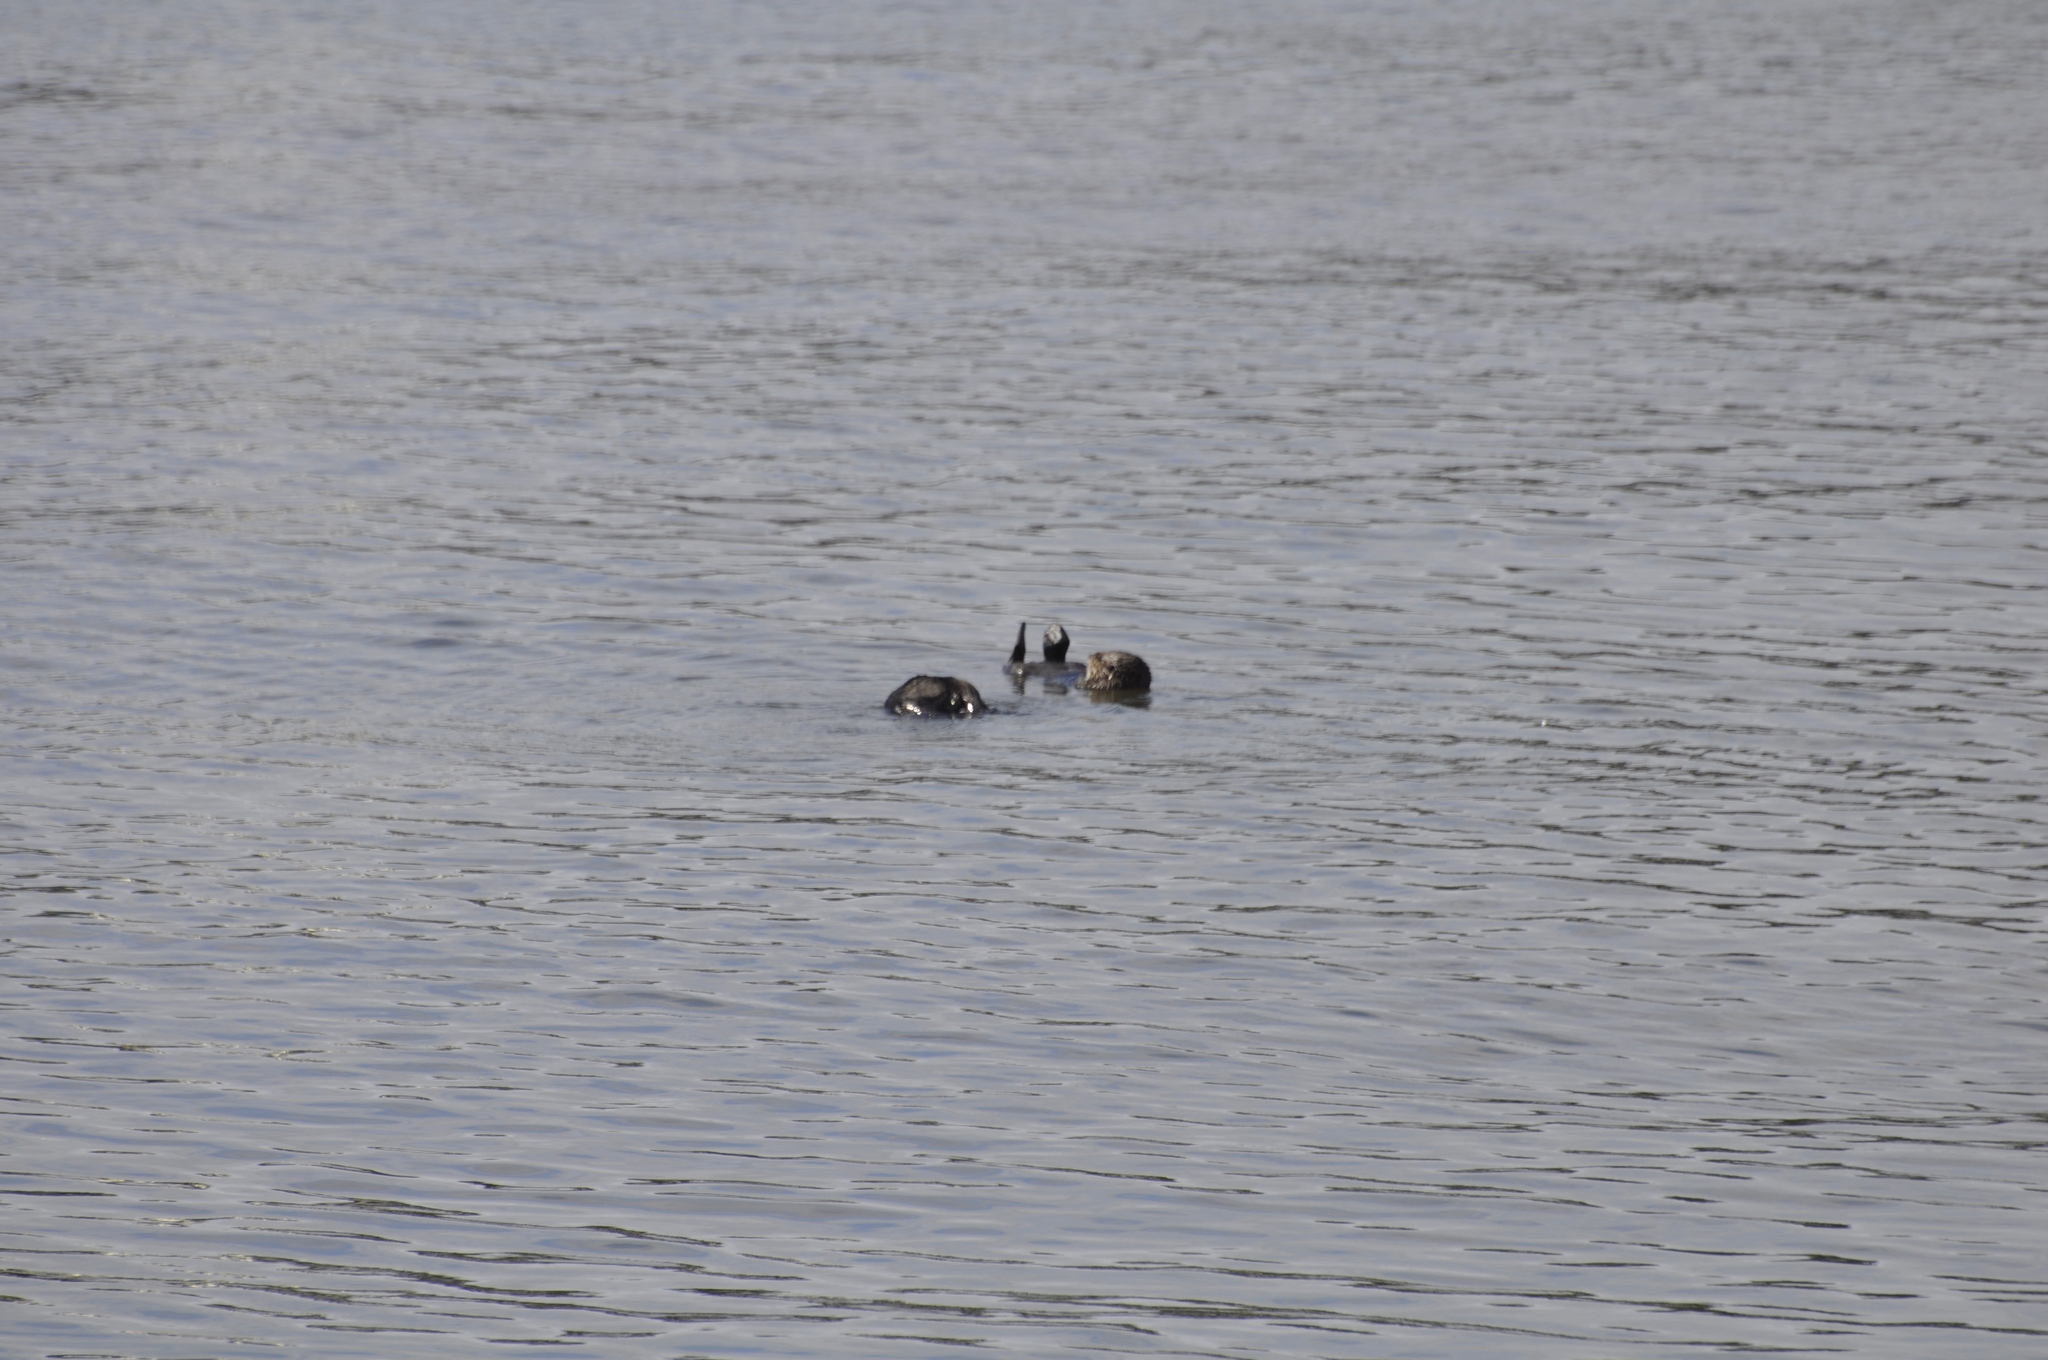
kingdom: Animalia
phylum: Chordata
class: Mammalia
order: Carnivora
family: Mustelidae
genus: Enhydra
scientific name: Enhydra lutris
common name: Sea otter
